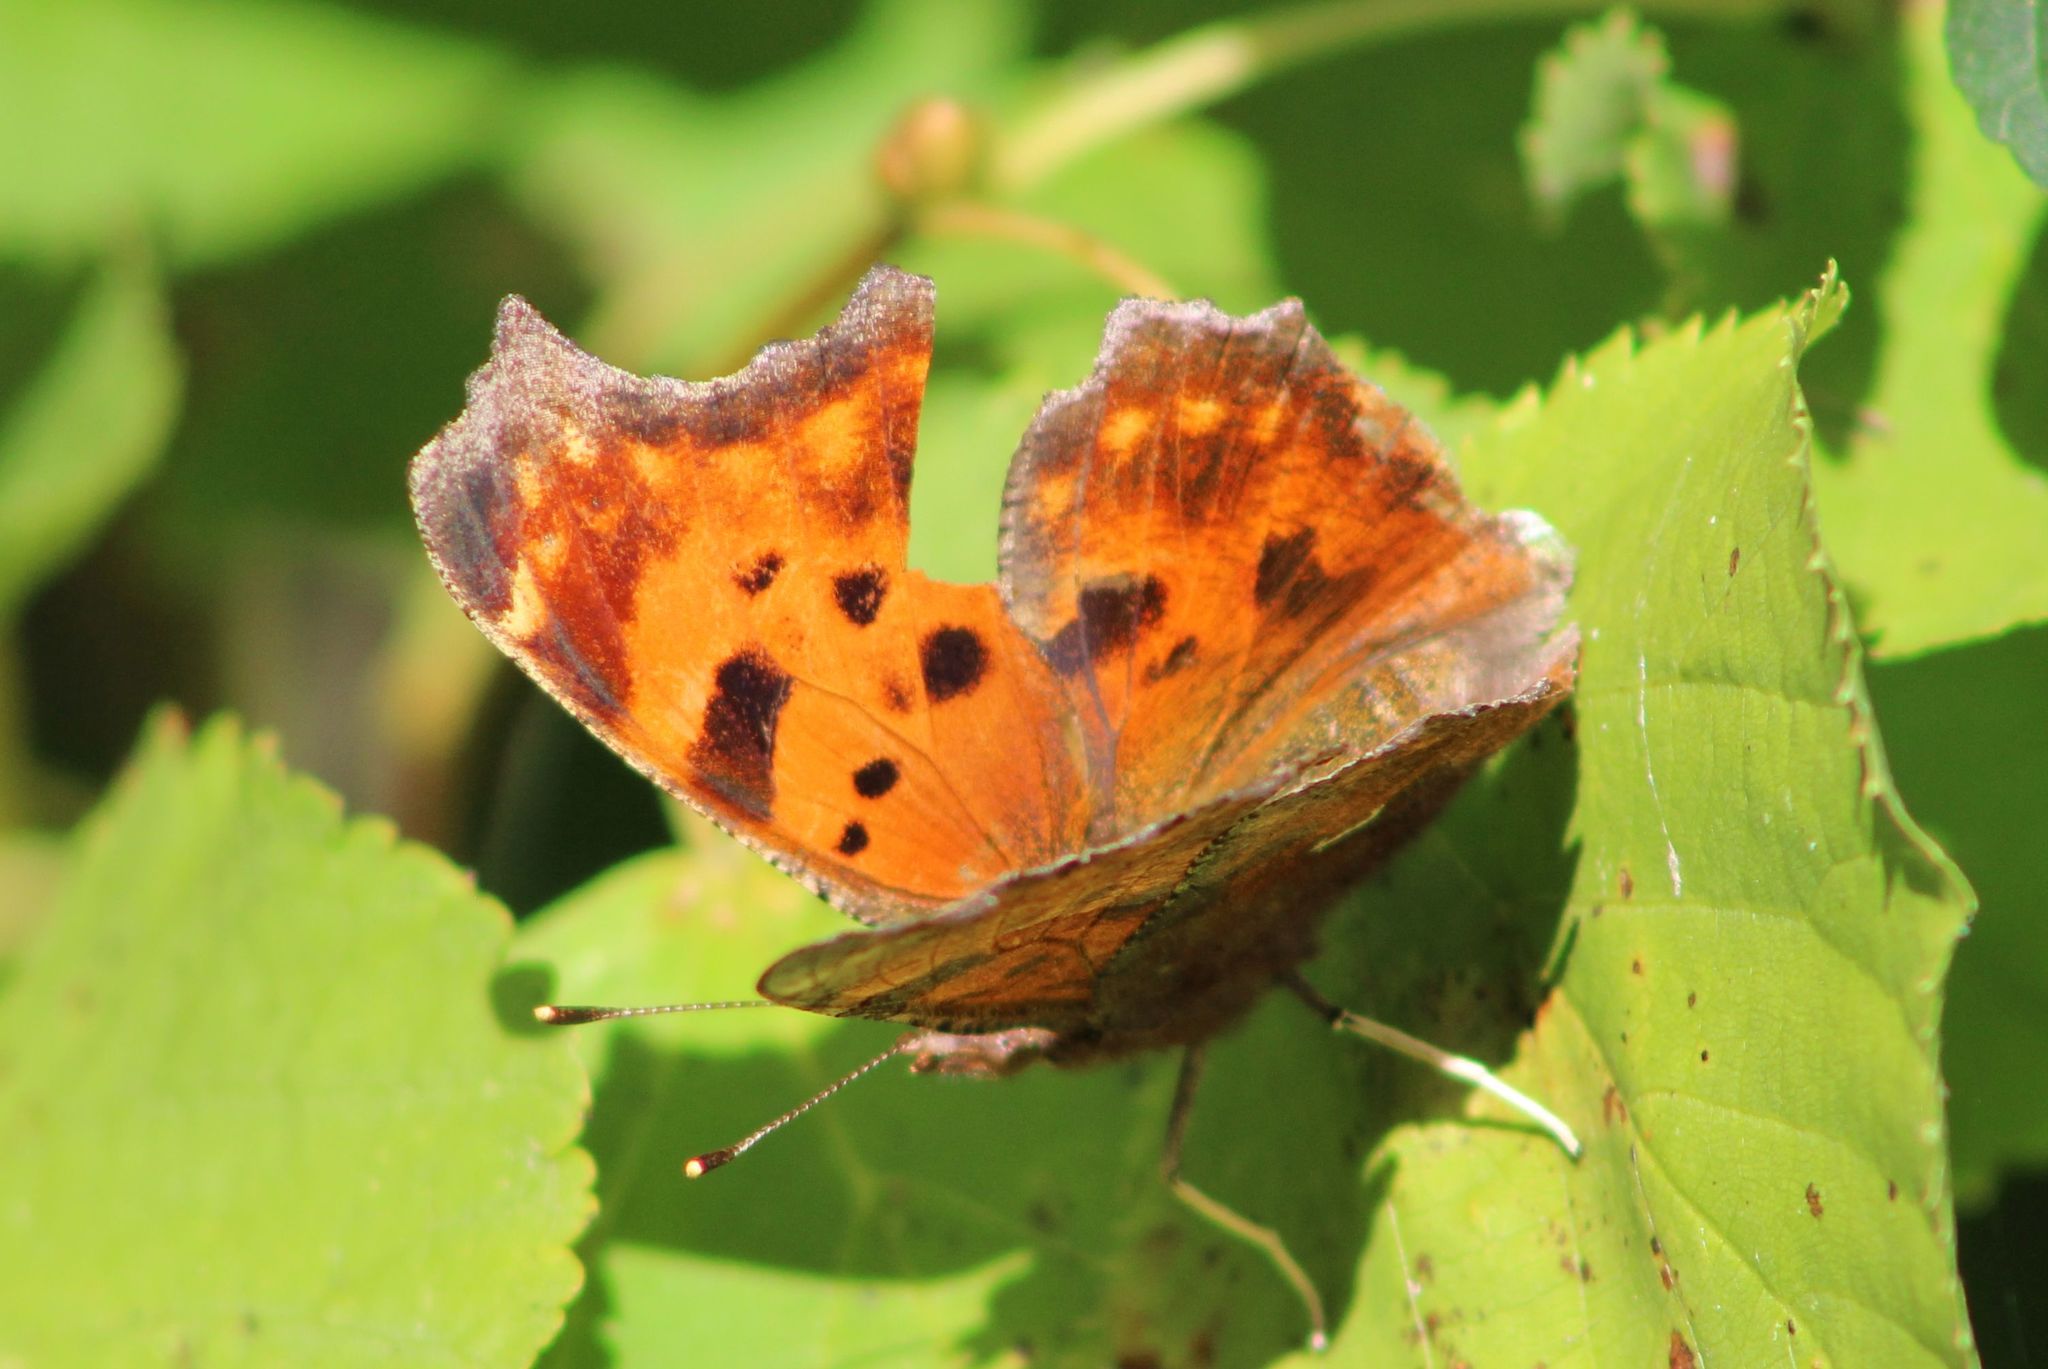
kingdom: Animalia
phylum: Arthropoda
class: Insecta
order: Lepidoptera
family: Nymphalidae
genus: Polygonia
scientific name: Polygonia comma
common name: Eastern comma
